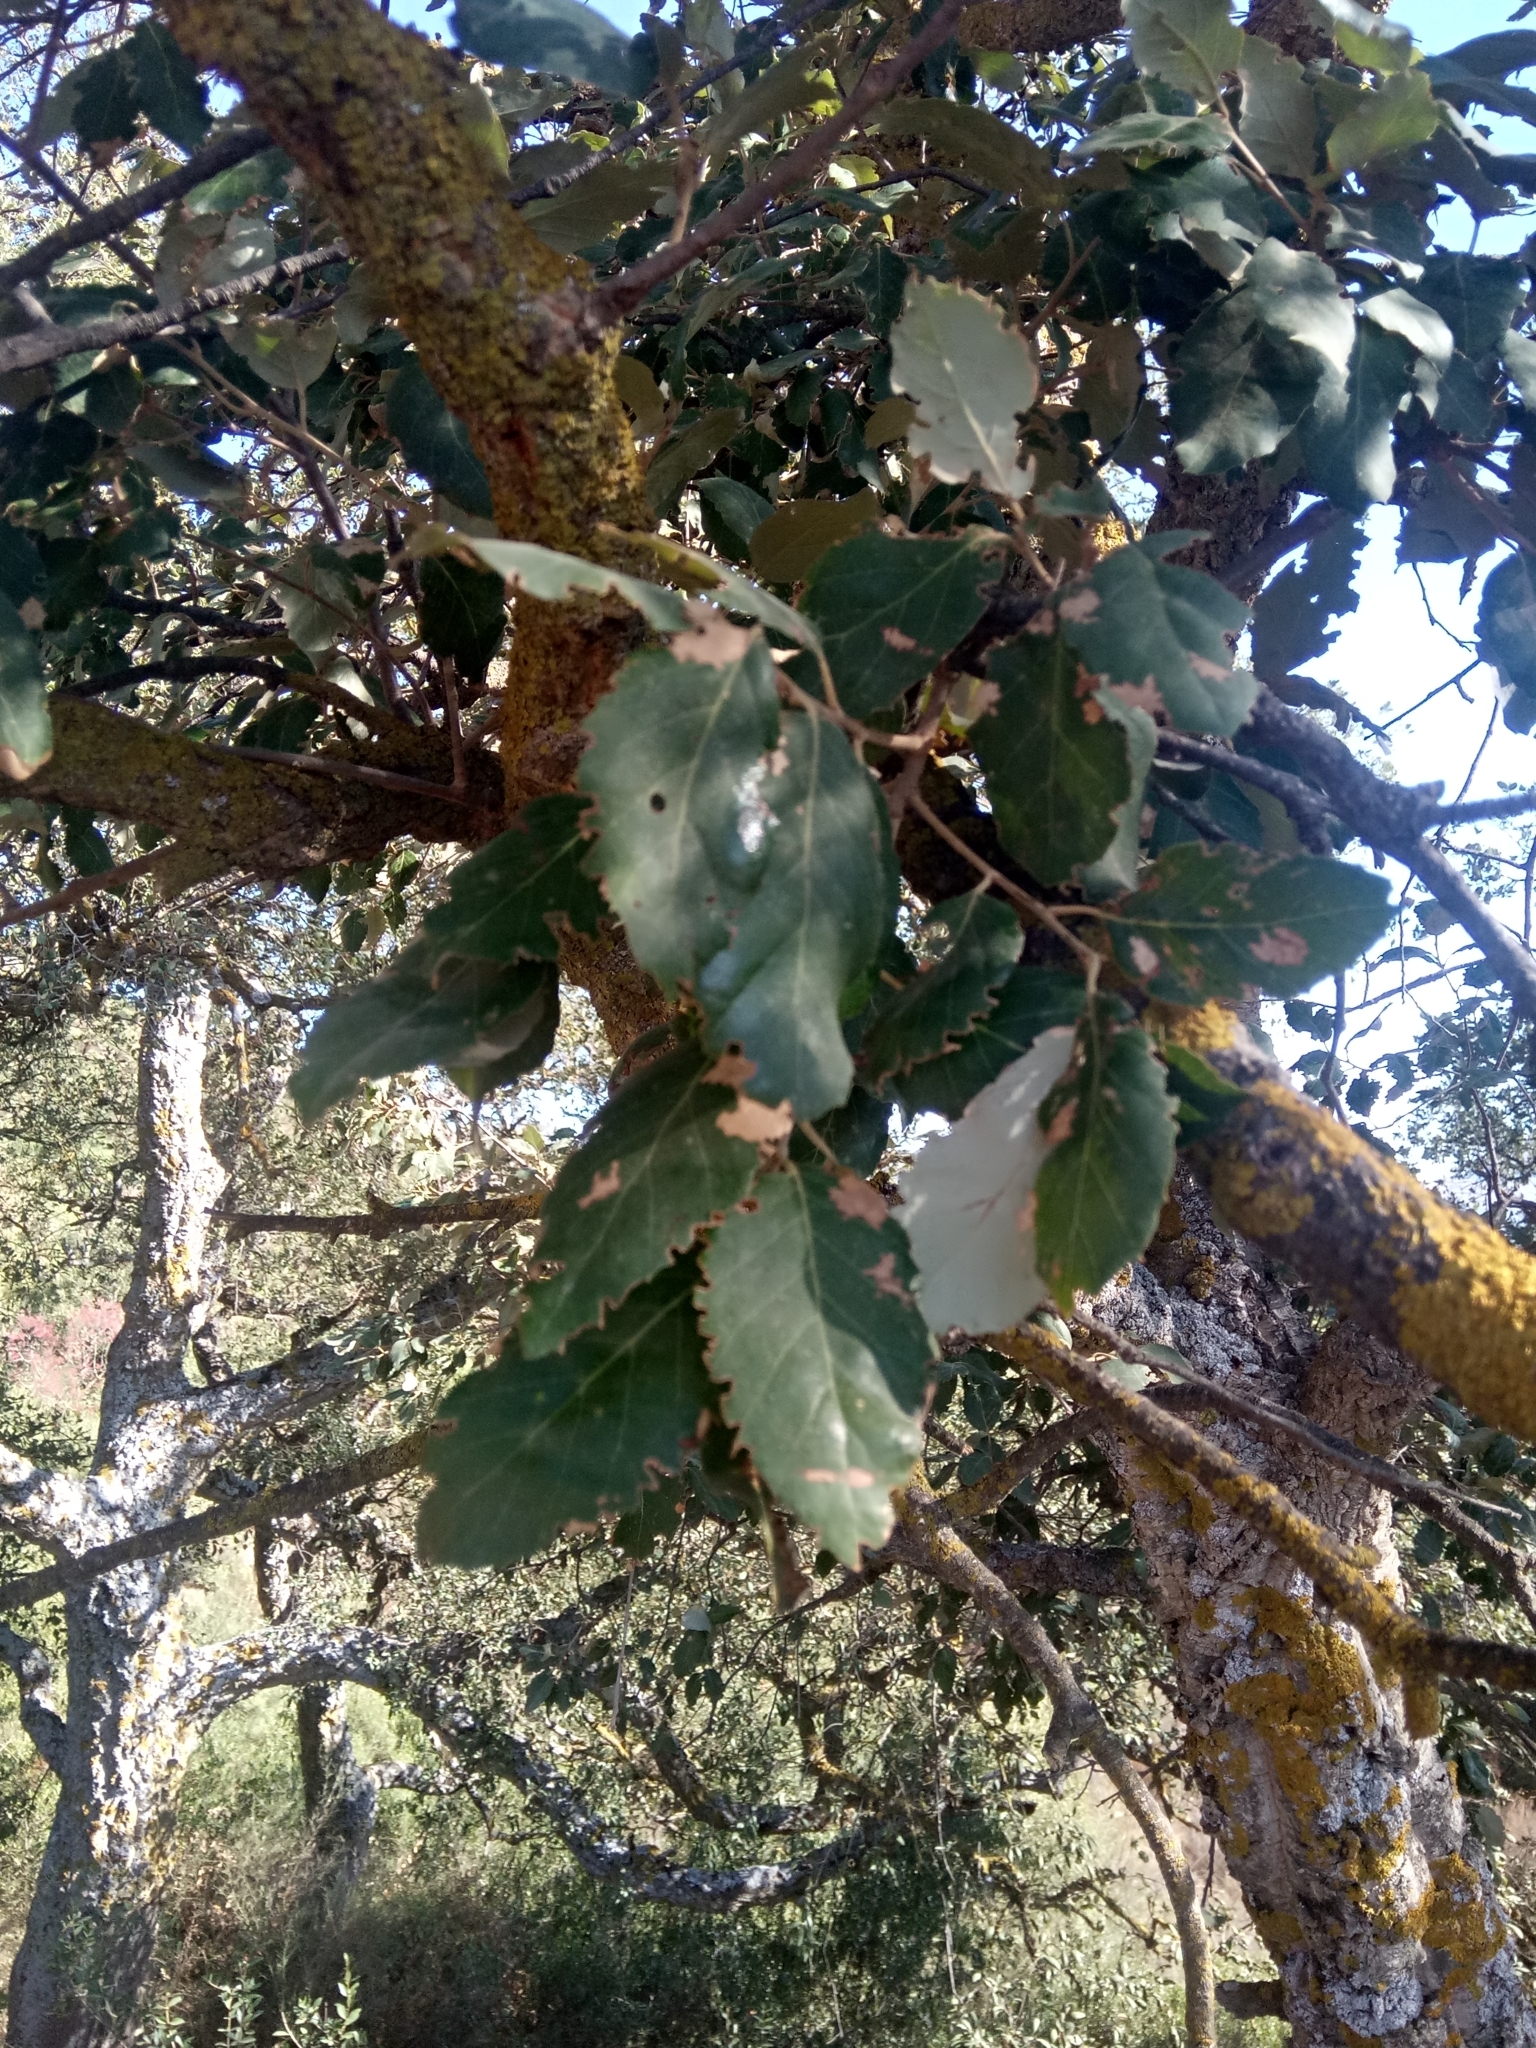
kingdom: Plantae
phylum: Tracheophyta
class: Magnoliopsida
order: Fagales
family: Fagaceae
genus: Quercus
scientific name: Quercus suber
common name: Cork oak
